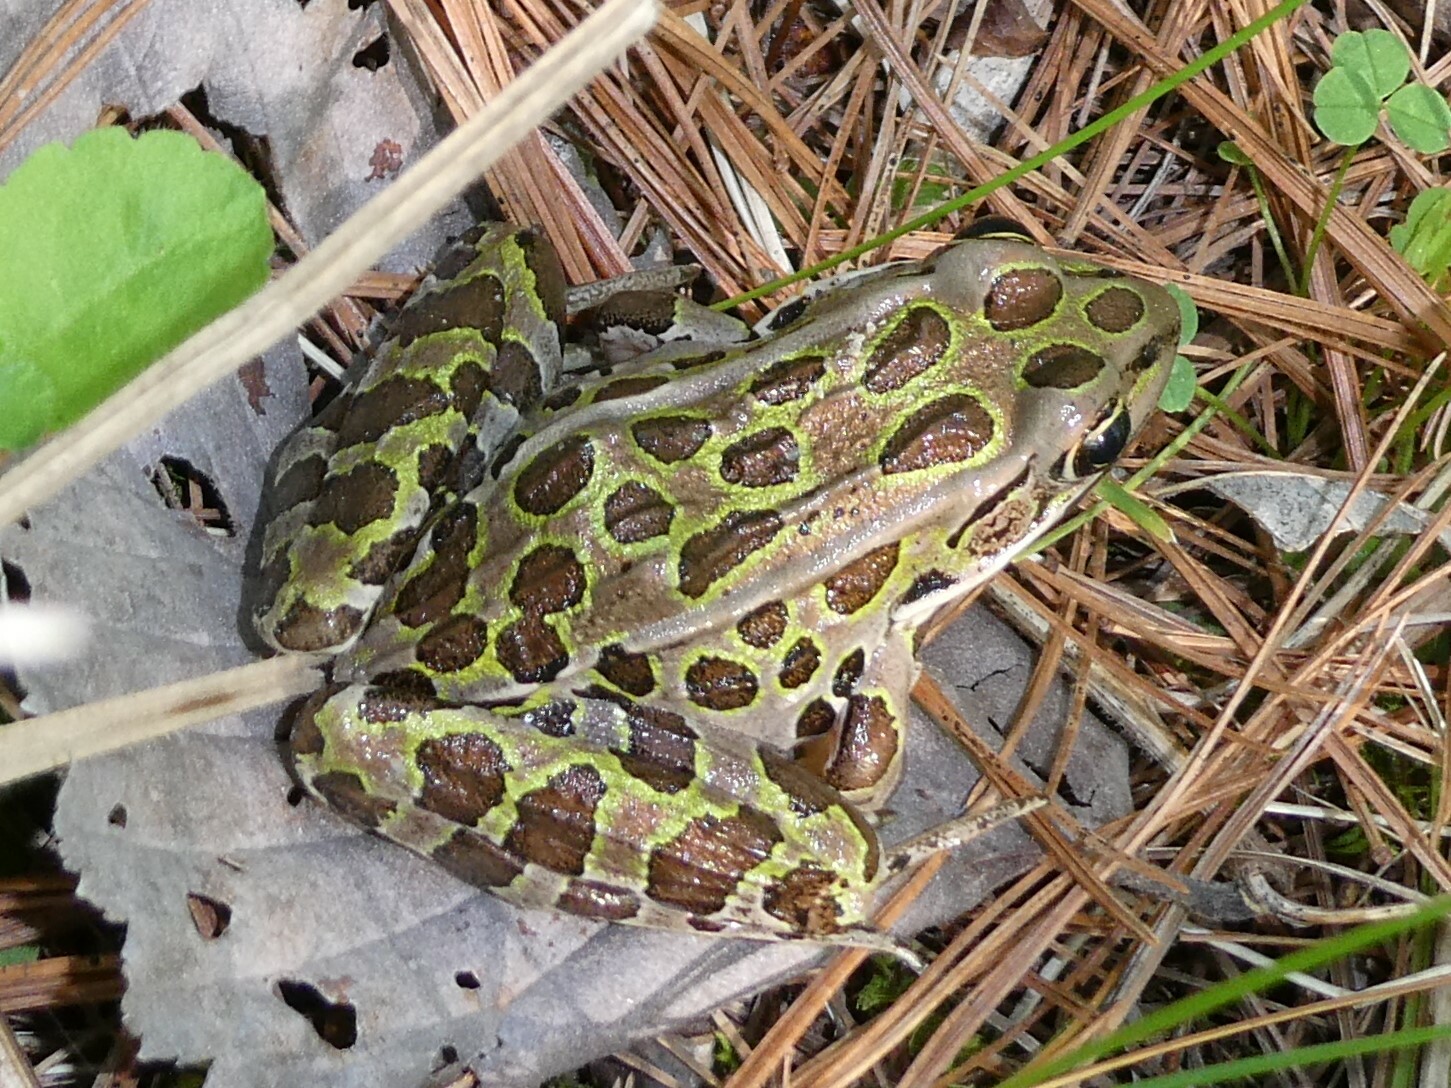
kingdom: Animalia
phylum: Chordata
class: Amphibia
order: Anura
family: Ranidae
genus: Lithobates
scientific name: Lithobates pipiens
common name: Northern leopard frog
